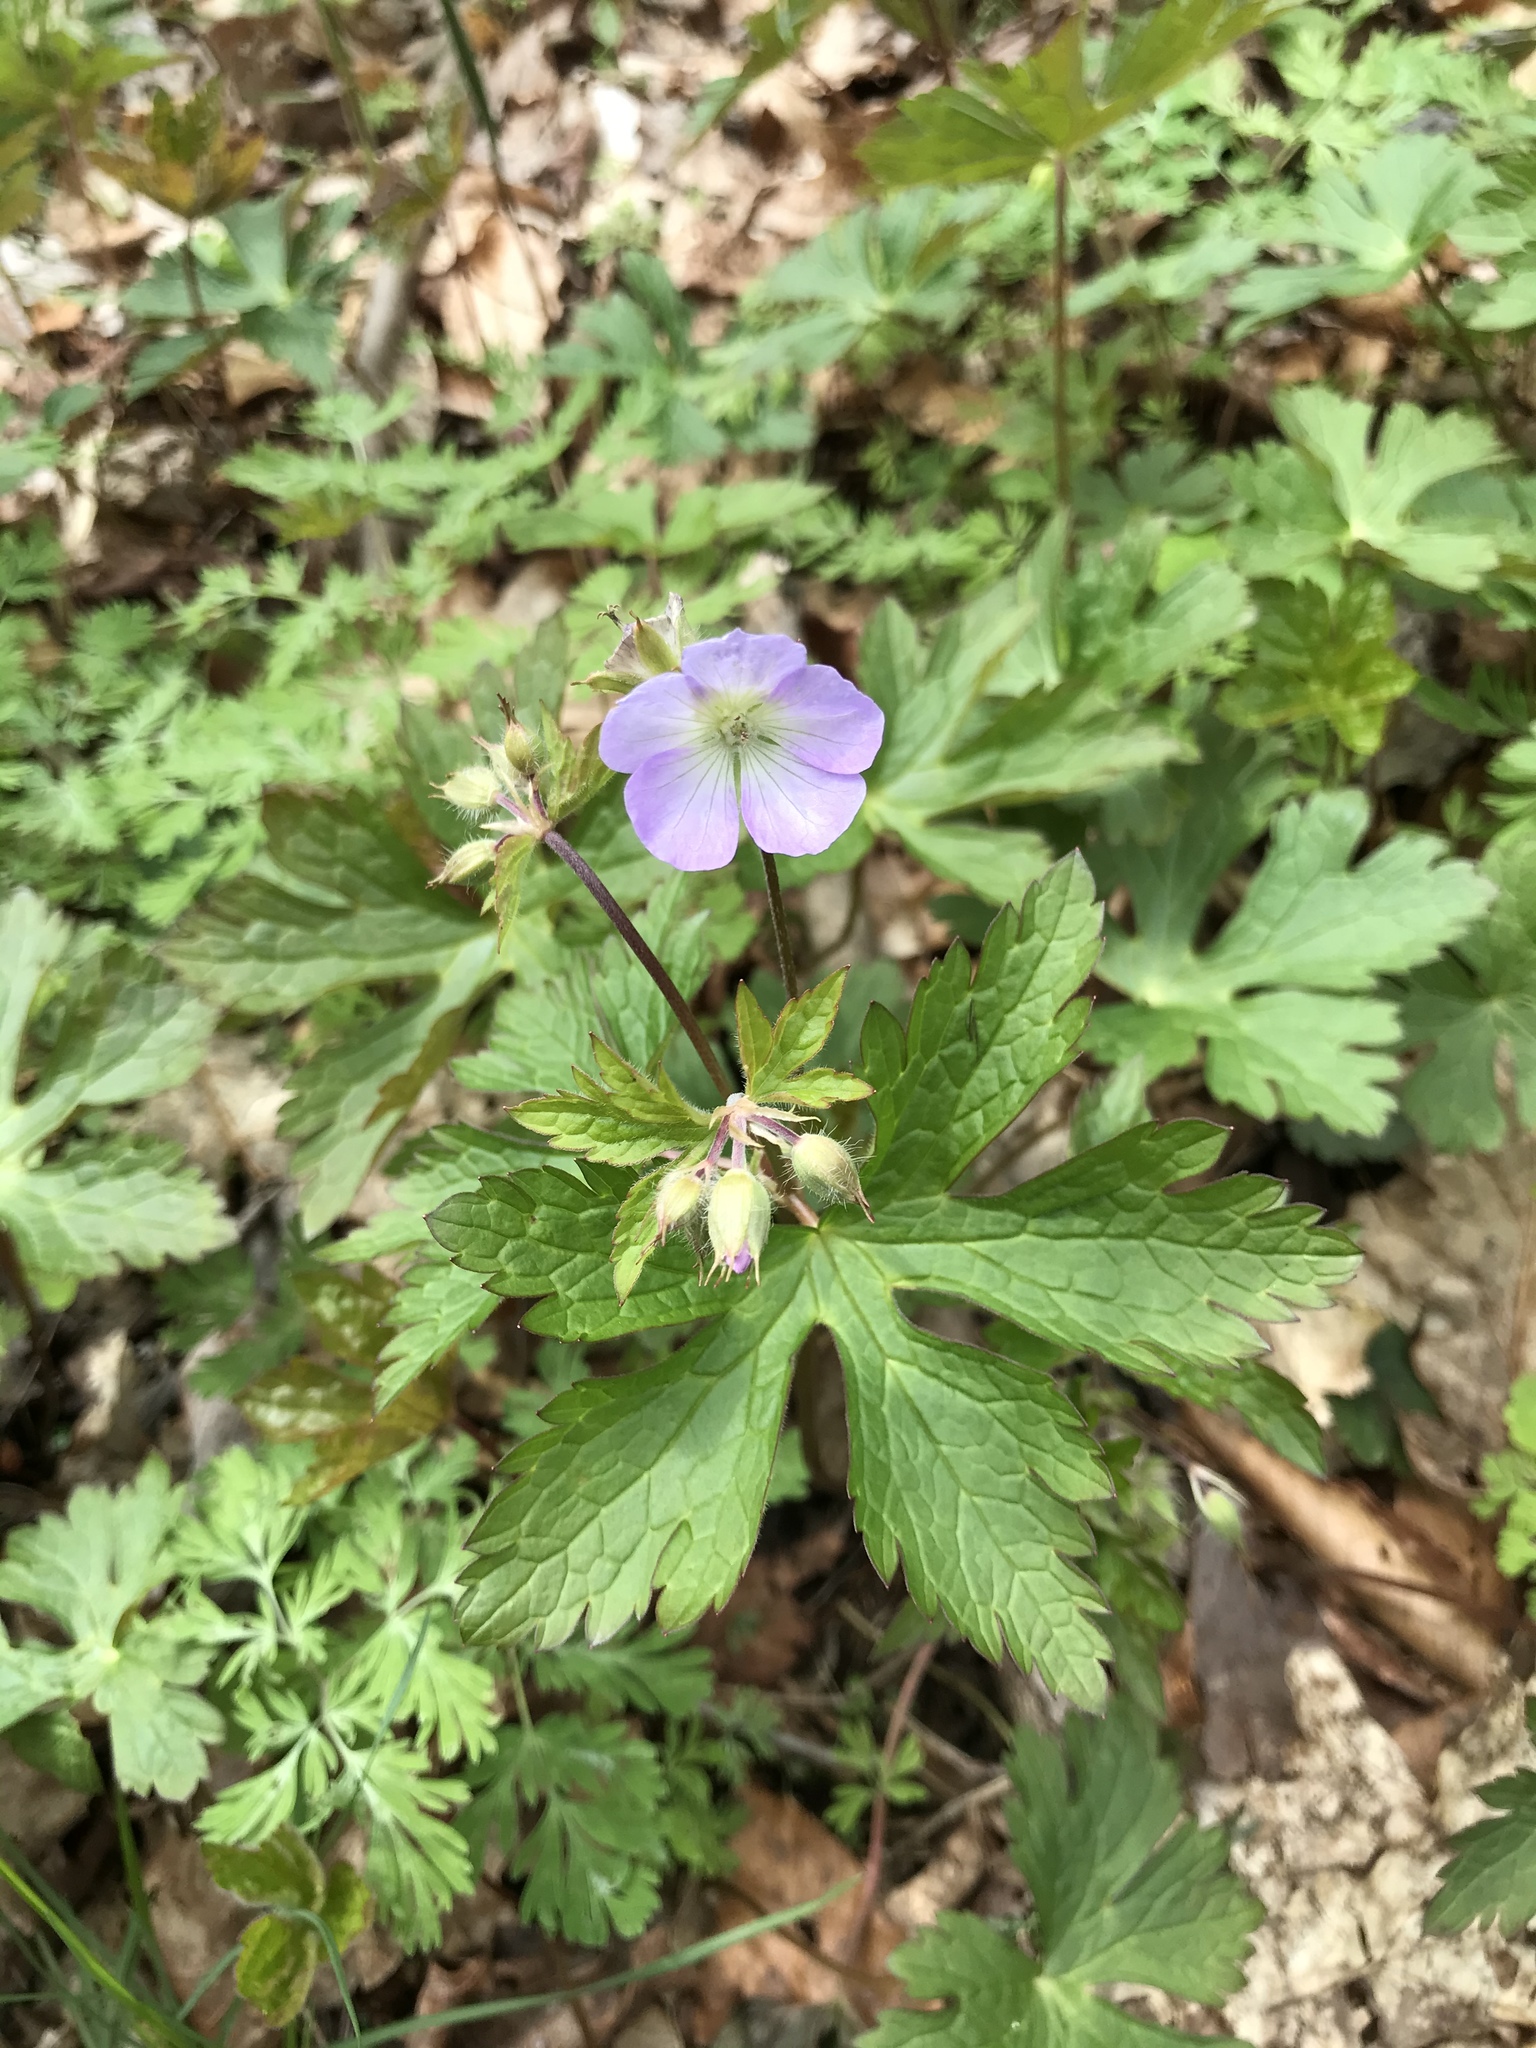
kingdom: Plantae
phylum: Tracheophyta
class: Magnoliopsida
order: Geraniales
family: Geraniaceae
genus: Geranium
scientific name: Geranium maculatum
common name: Spotted geranium
